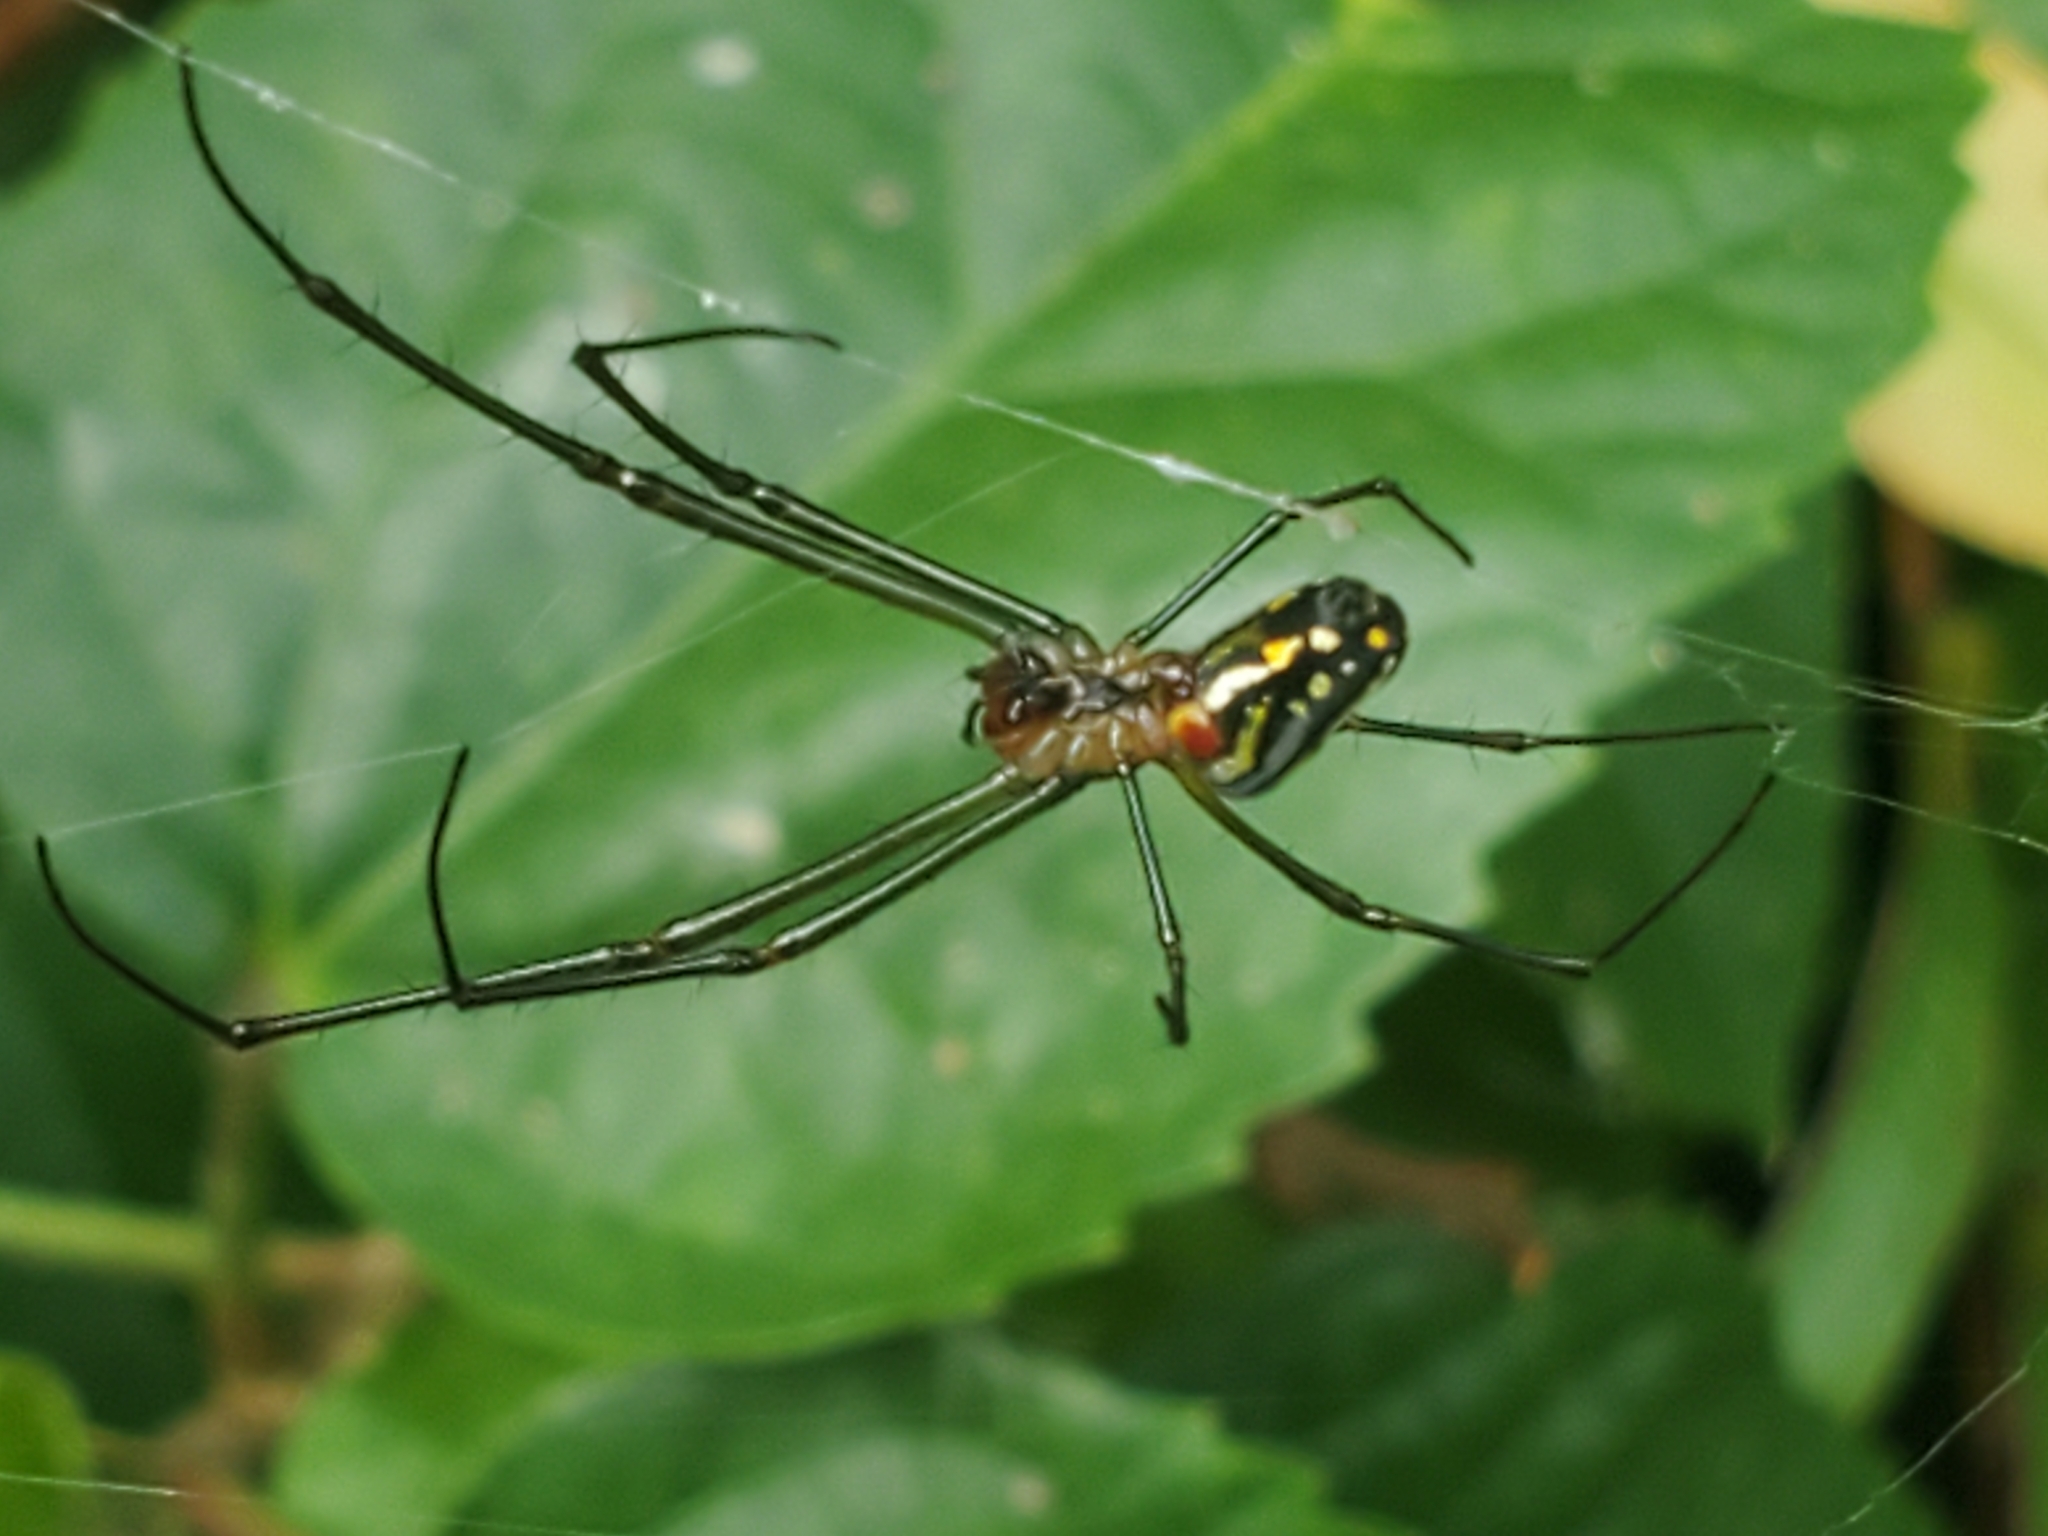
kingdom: Animalia
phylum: Arthropoda
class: Arachnida
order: Araneae
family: Tetragnathidae
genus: Leucauge
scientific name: Leucauge argyra
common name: Longjawed orb weavers
